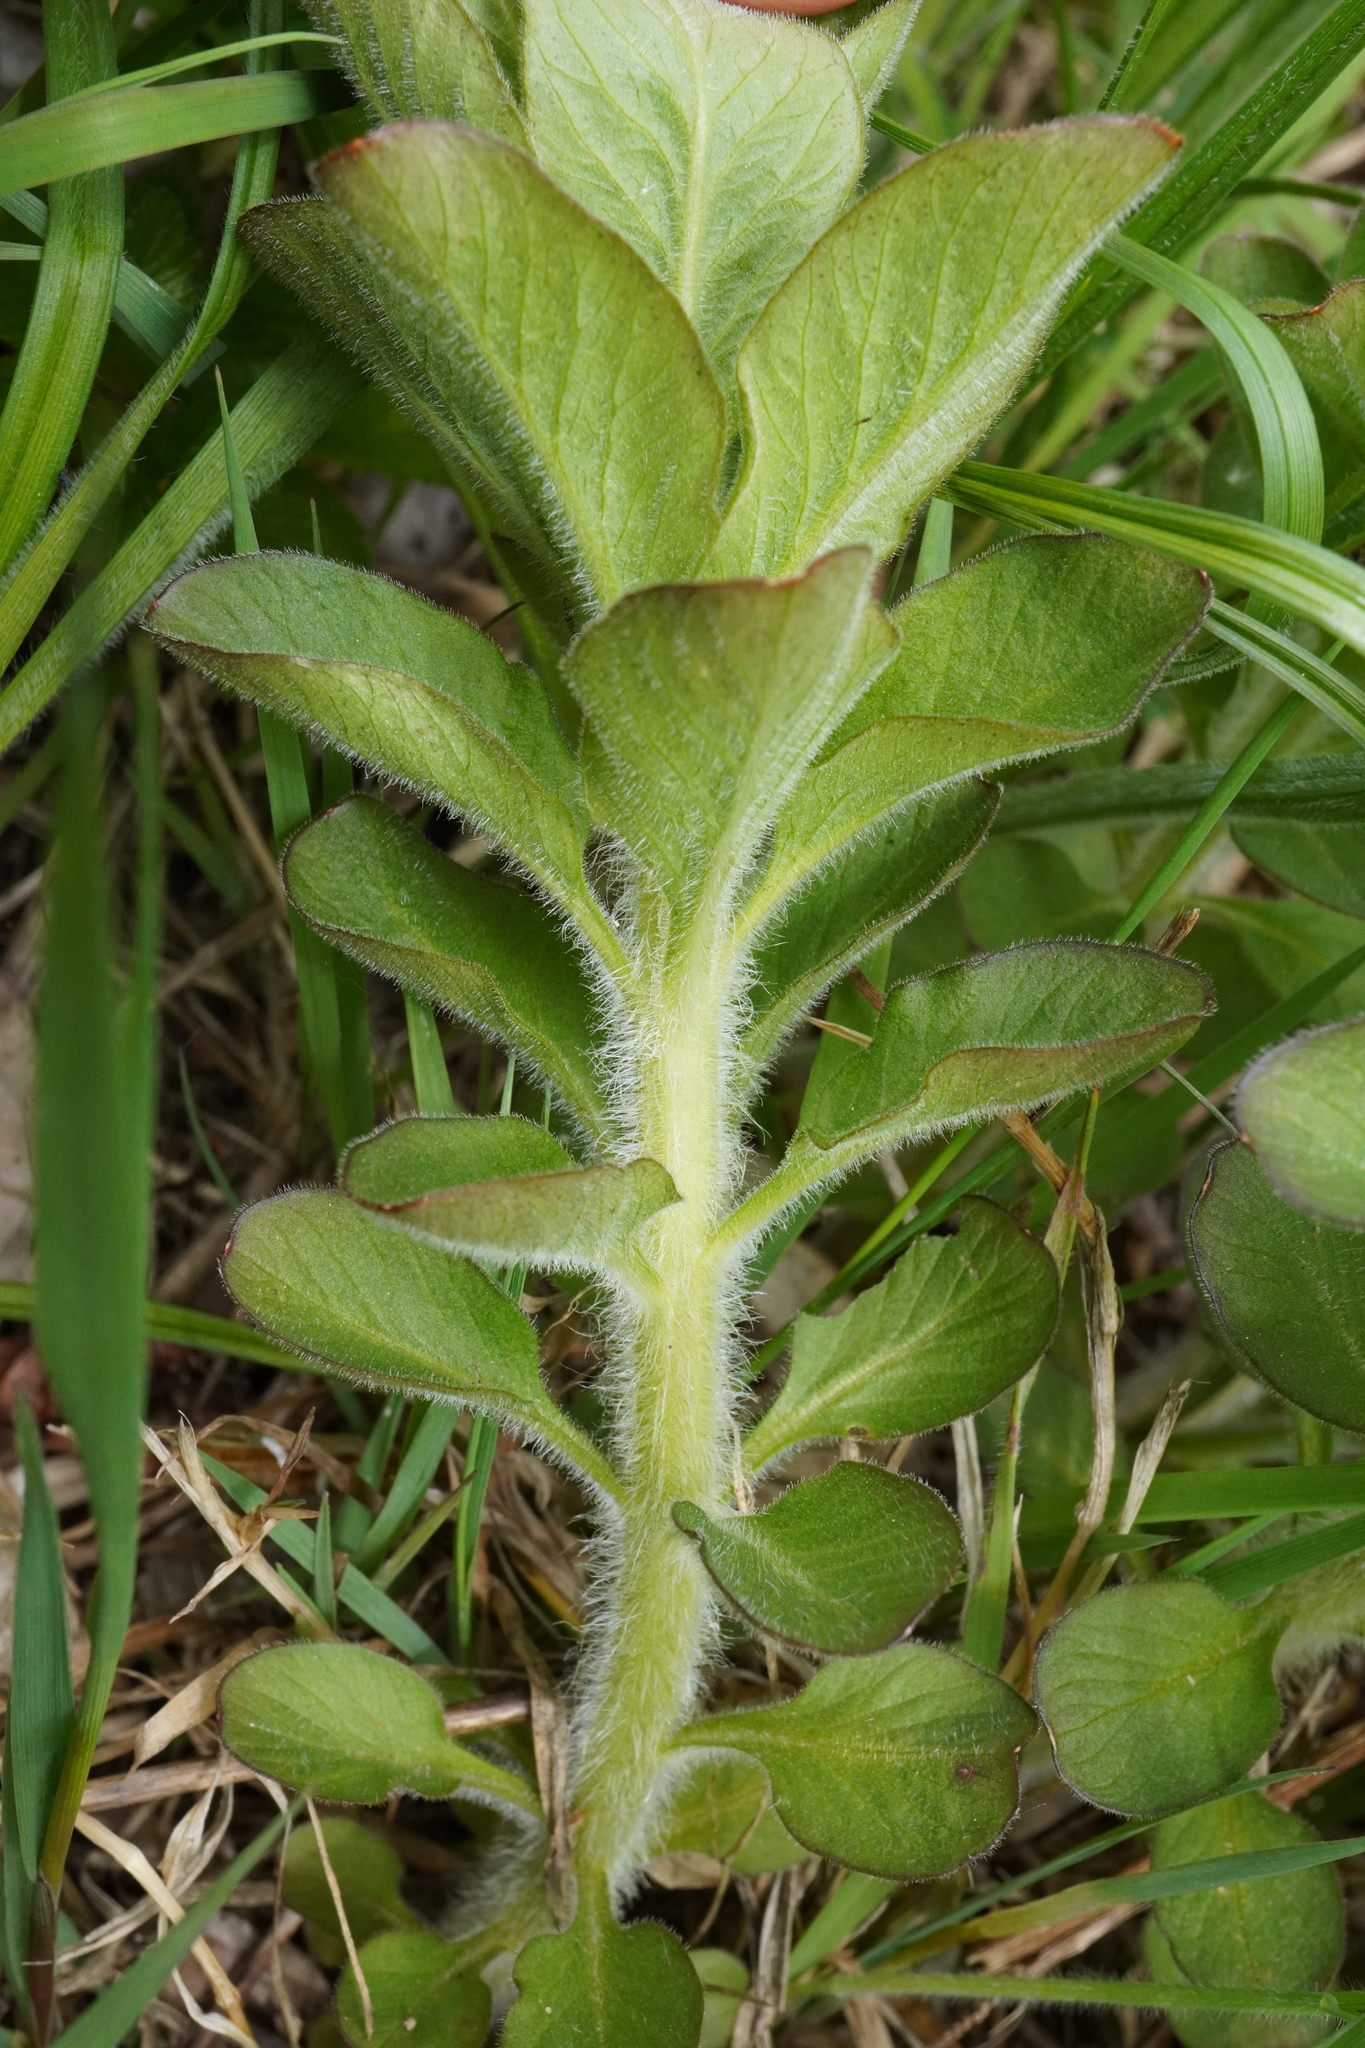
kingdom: Plantae
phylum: Tracheophyta
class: Magnoliopsida
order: Ericales
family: Primulaceae
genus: Lysimachia
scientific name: Lysimachia punctata
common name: Dotted loosestrife
